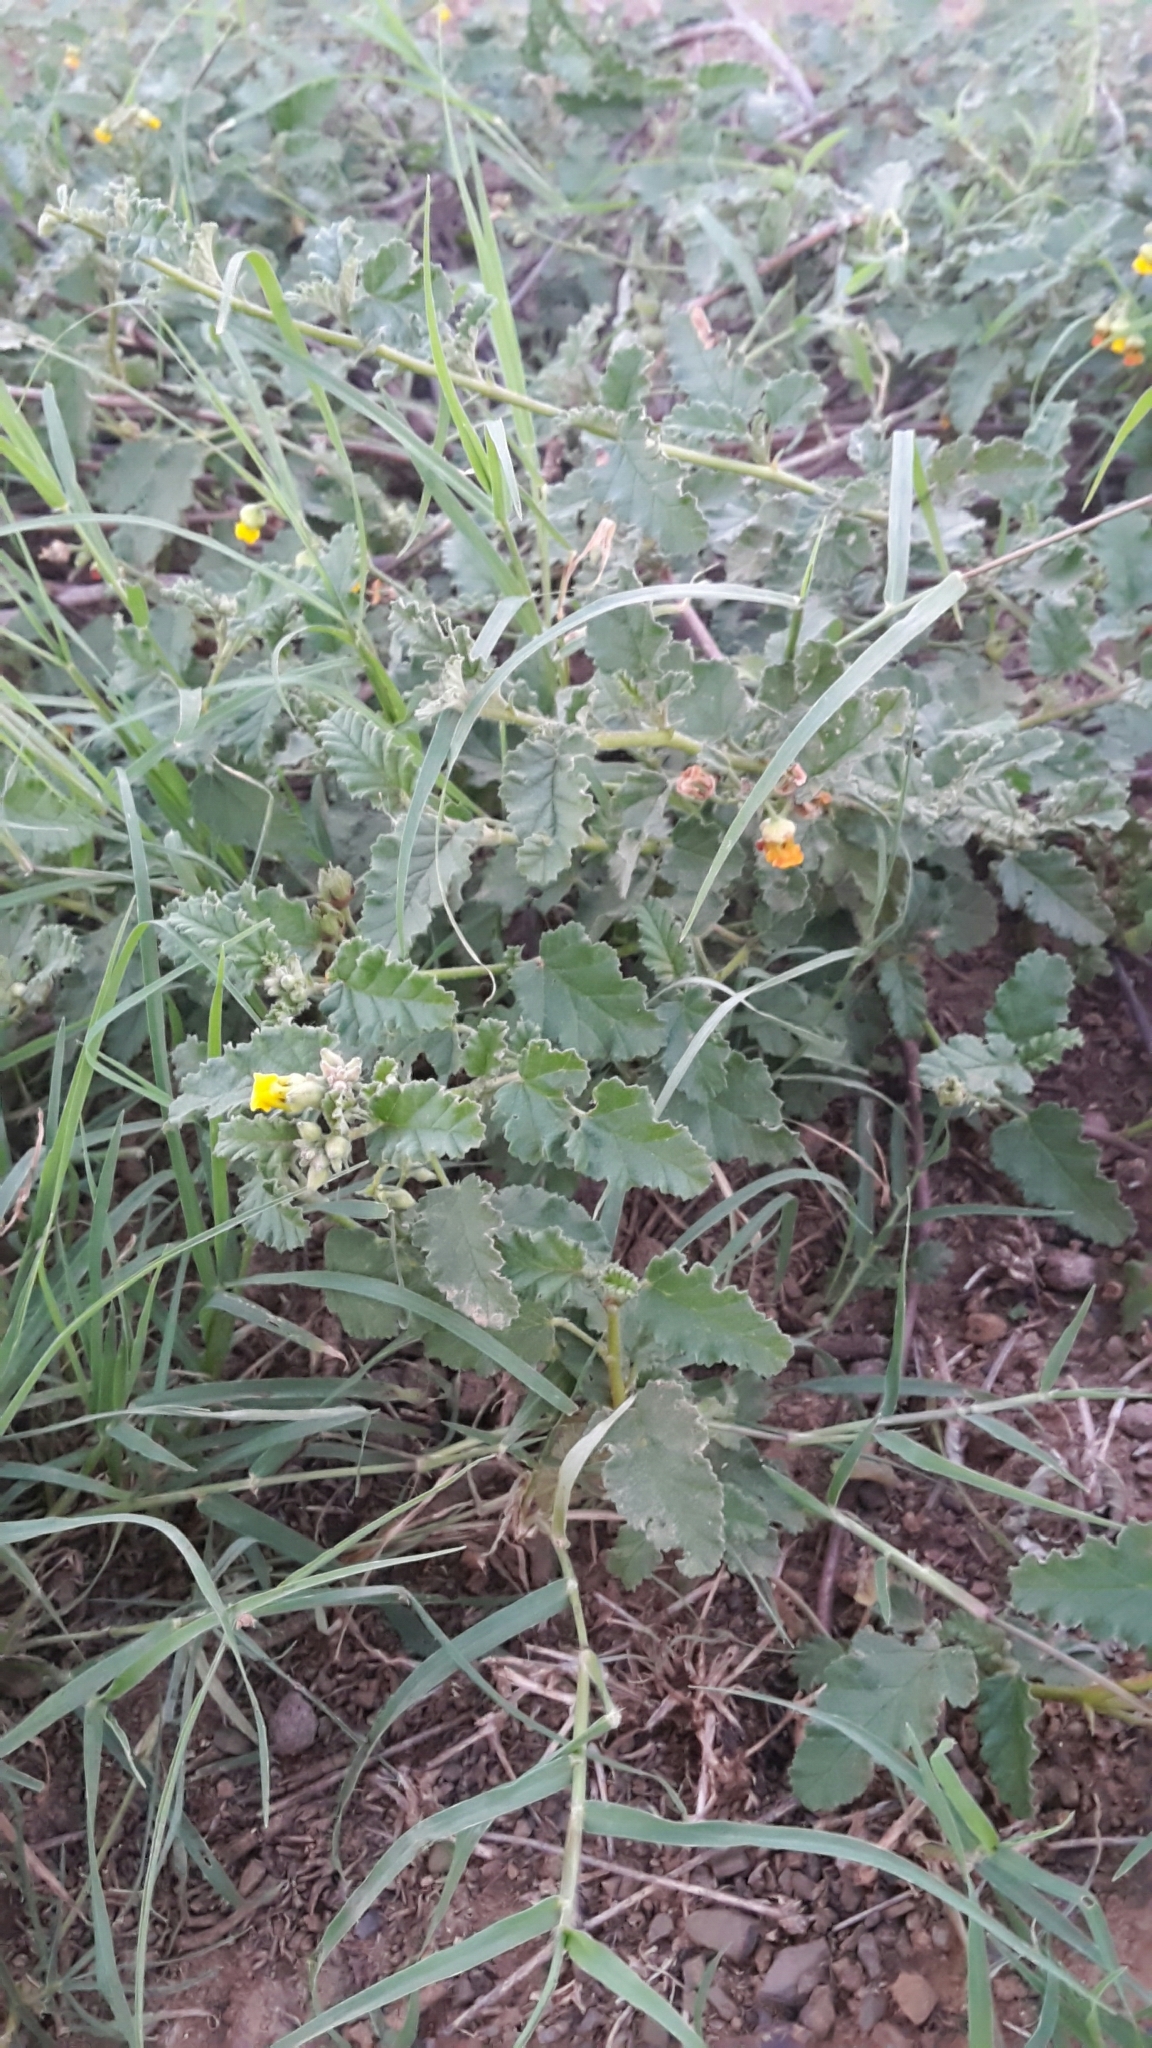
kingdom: Plantae
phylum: Tracheophyta
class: Magnoliopsida
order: Malvales
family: Malvaceae
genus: Hermannia
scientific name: Hermannia althaeoides
